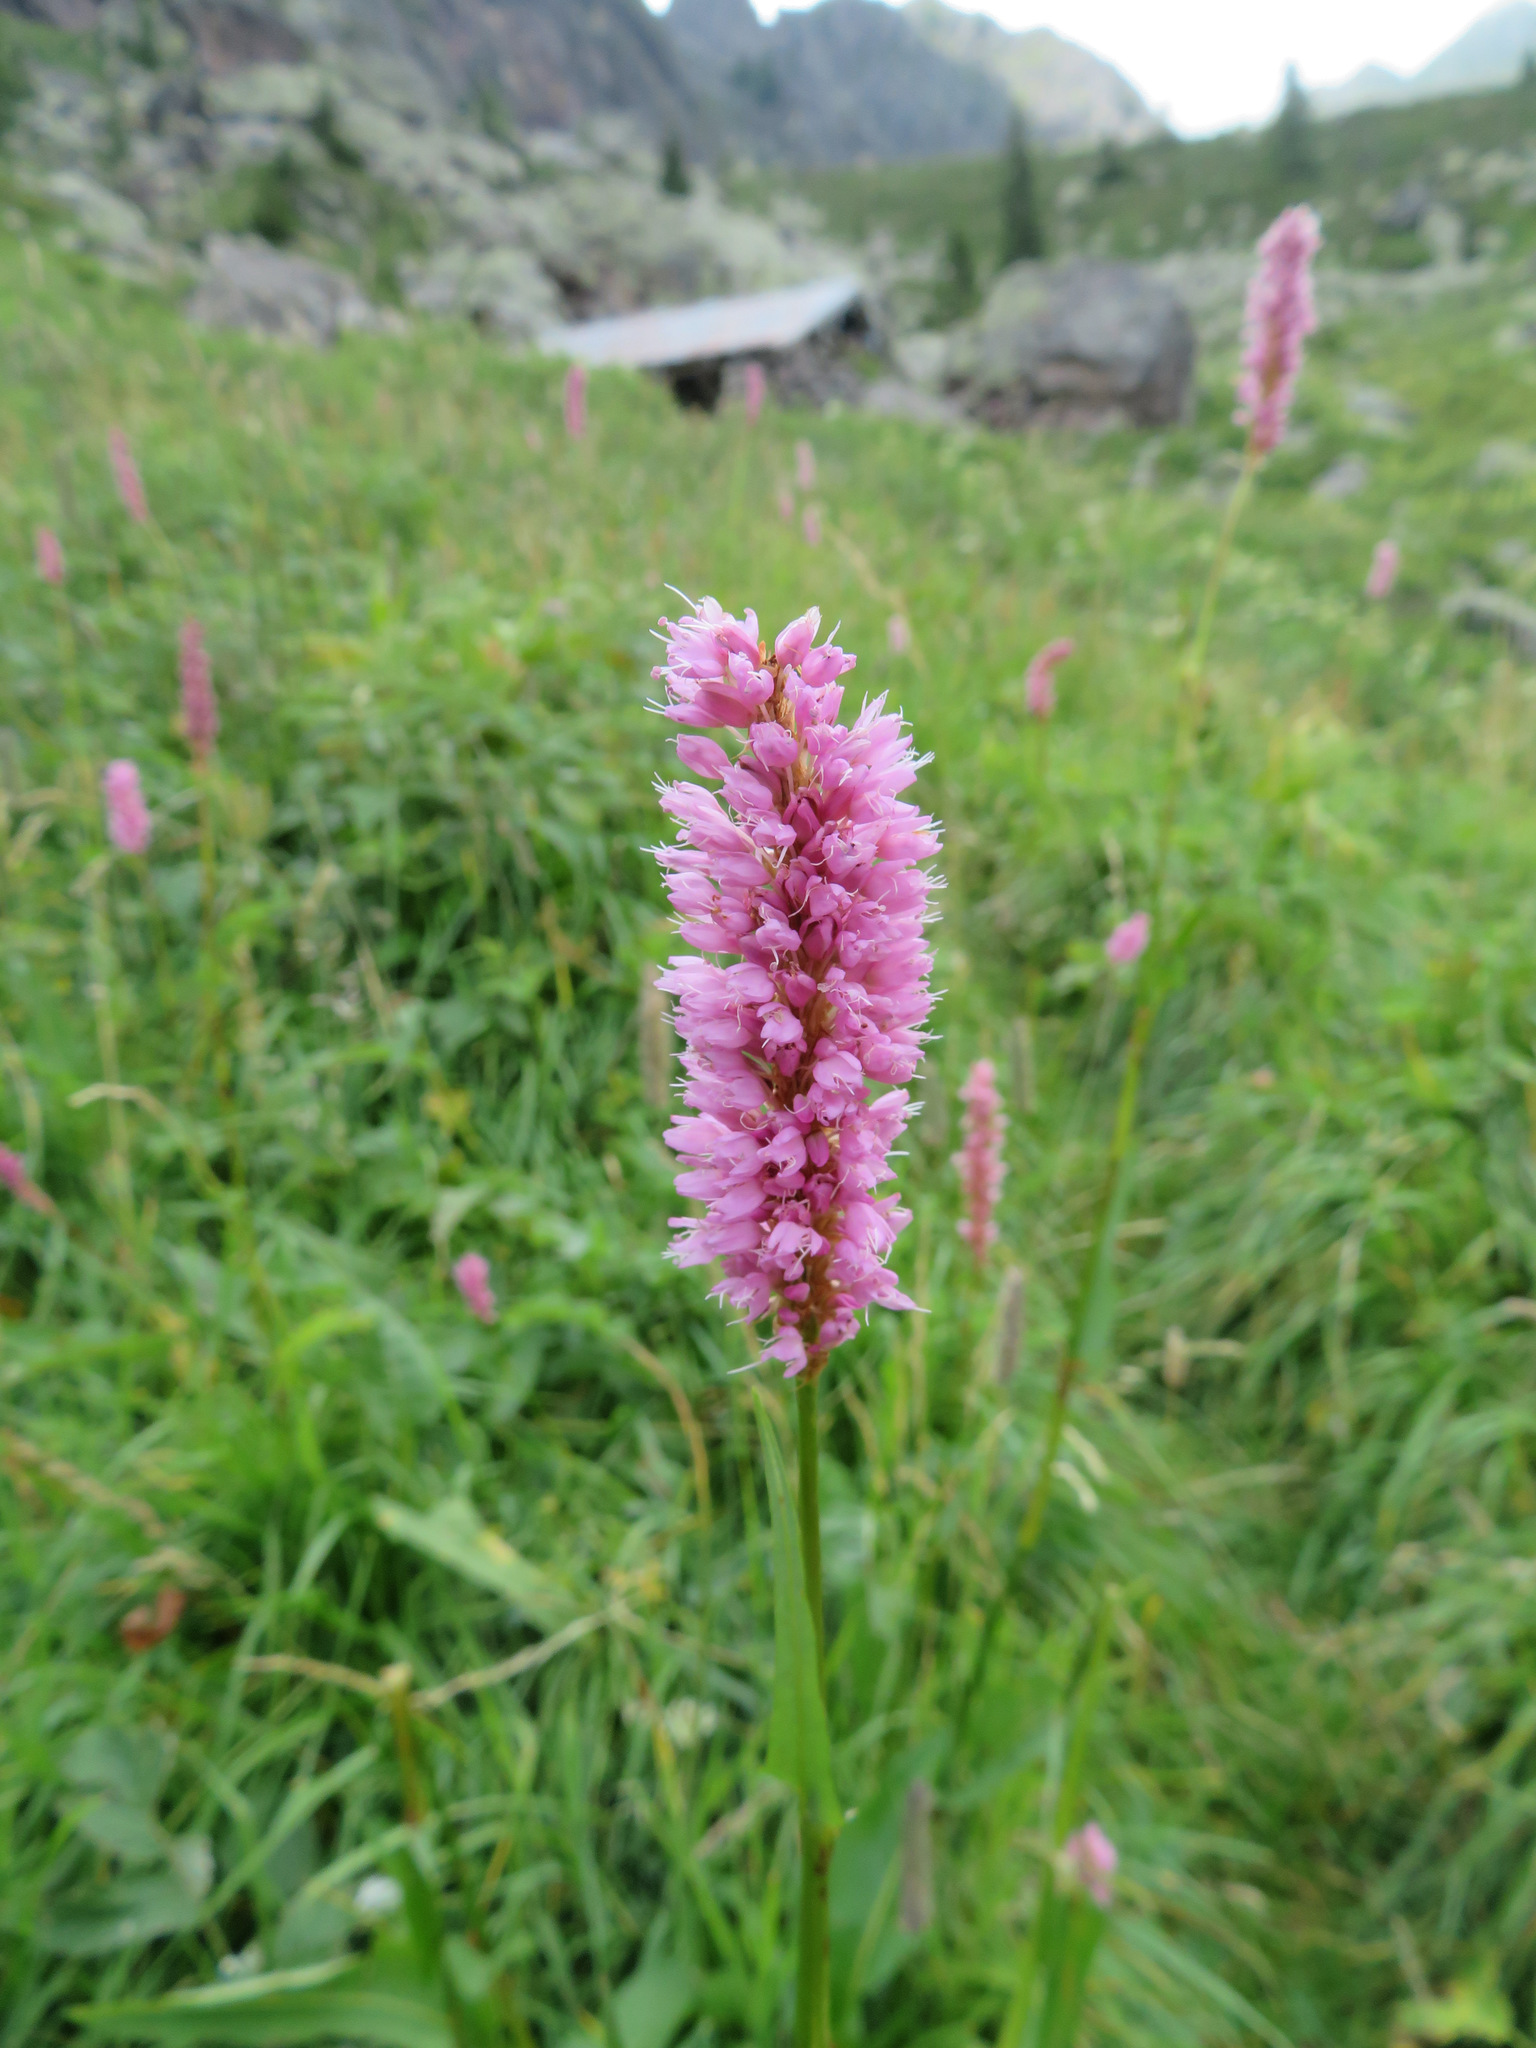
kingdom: Plantae
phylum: Tracheophyta
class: Magnoliopsida
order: Caryophyllales
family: Polygonaceae
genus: Bistorta
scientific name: Bistorta officinalis
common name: Common bistort
